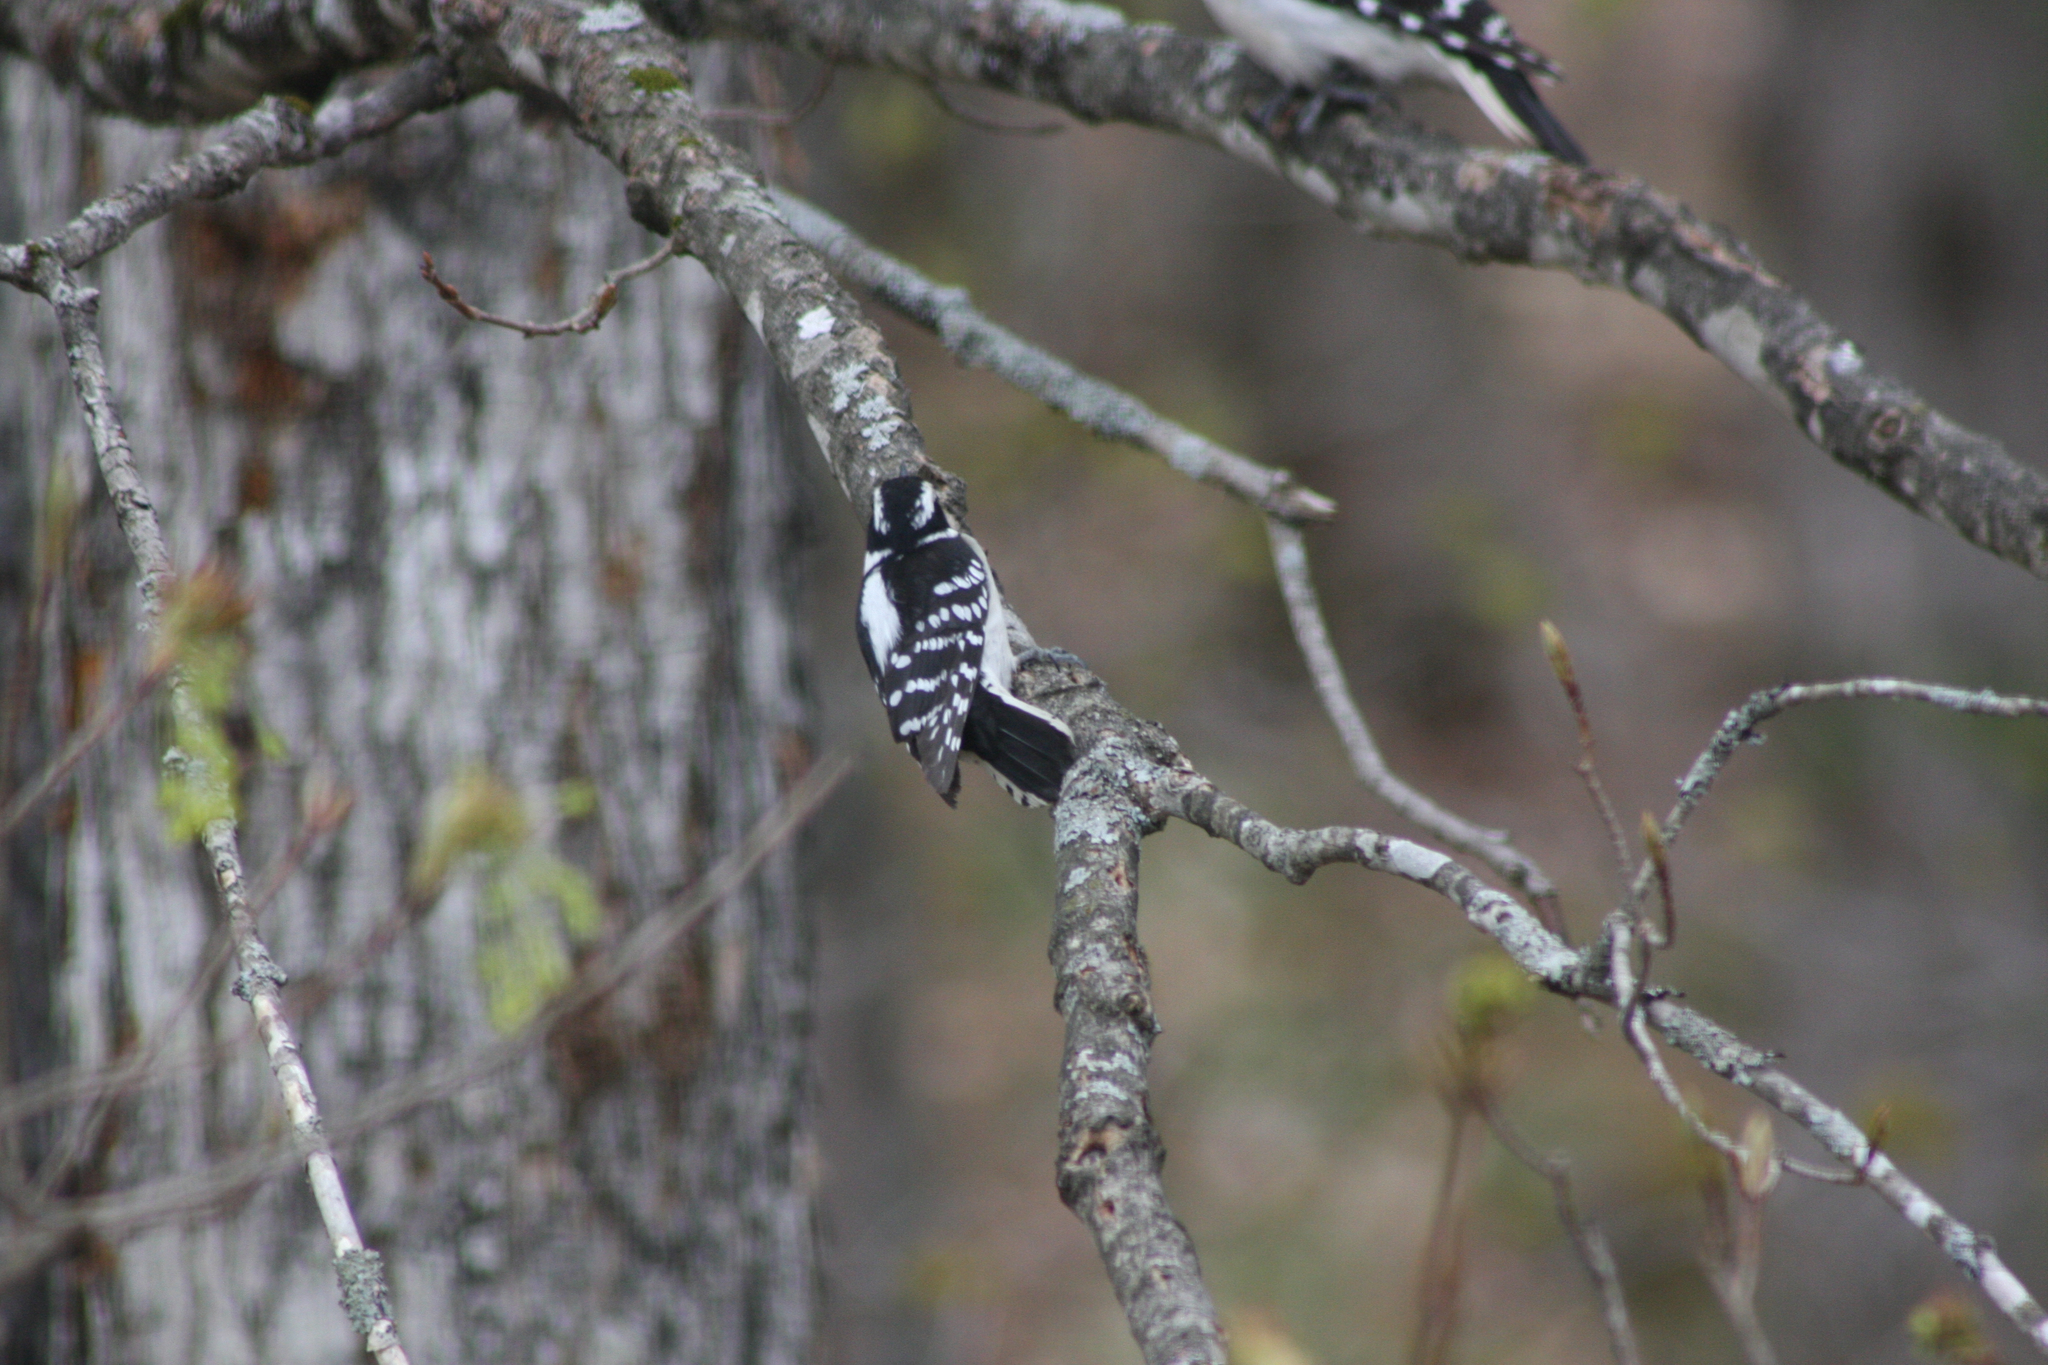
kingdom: Animalia
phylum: Chordata
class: Aves
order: Piciformes
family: Picidae
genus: Dryobates
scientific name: Dryobates pubescens
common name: Downy woodpecker
